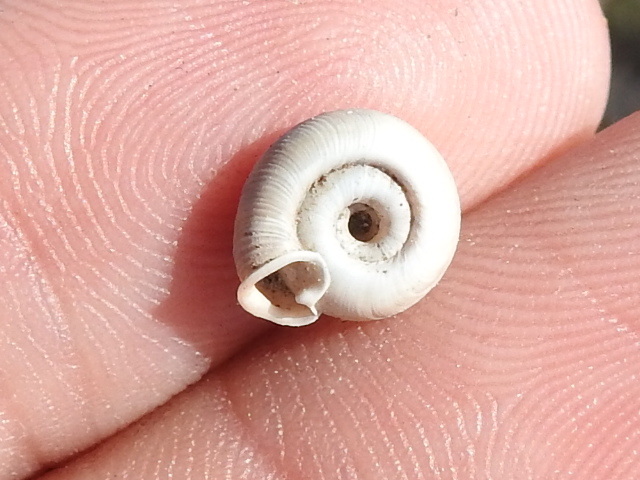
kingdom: Animalia
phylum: Mollusca
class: Gastropoda
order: Stylommatophora
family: Polygyridae
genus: Polygyra
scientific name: Polygyra cereolus
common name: Southern flatcone snail
